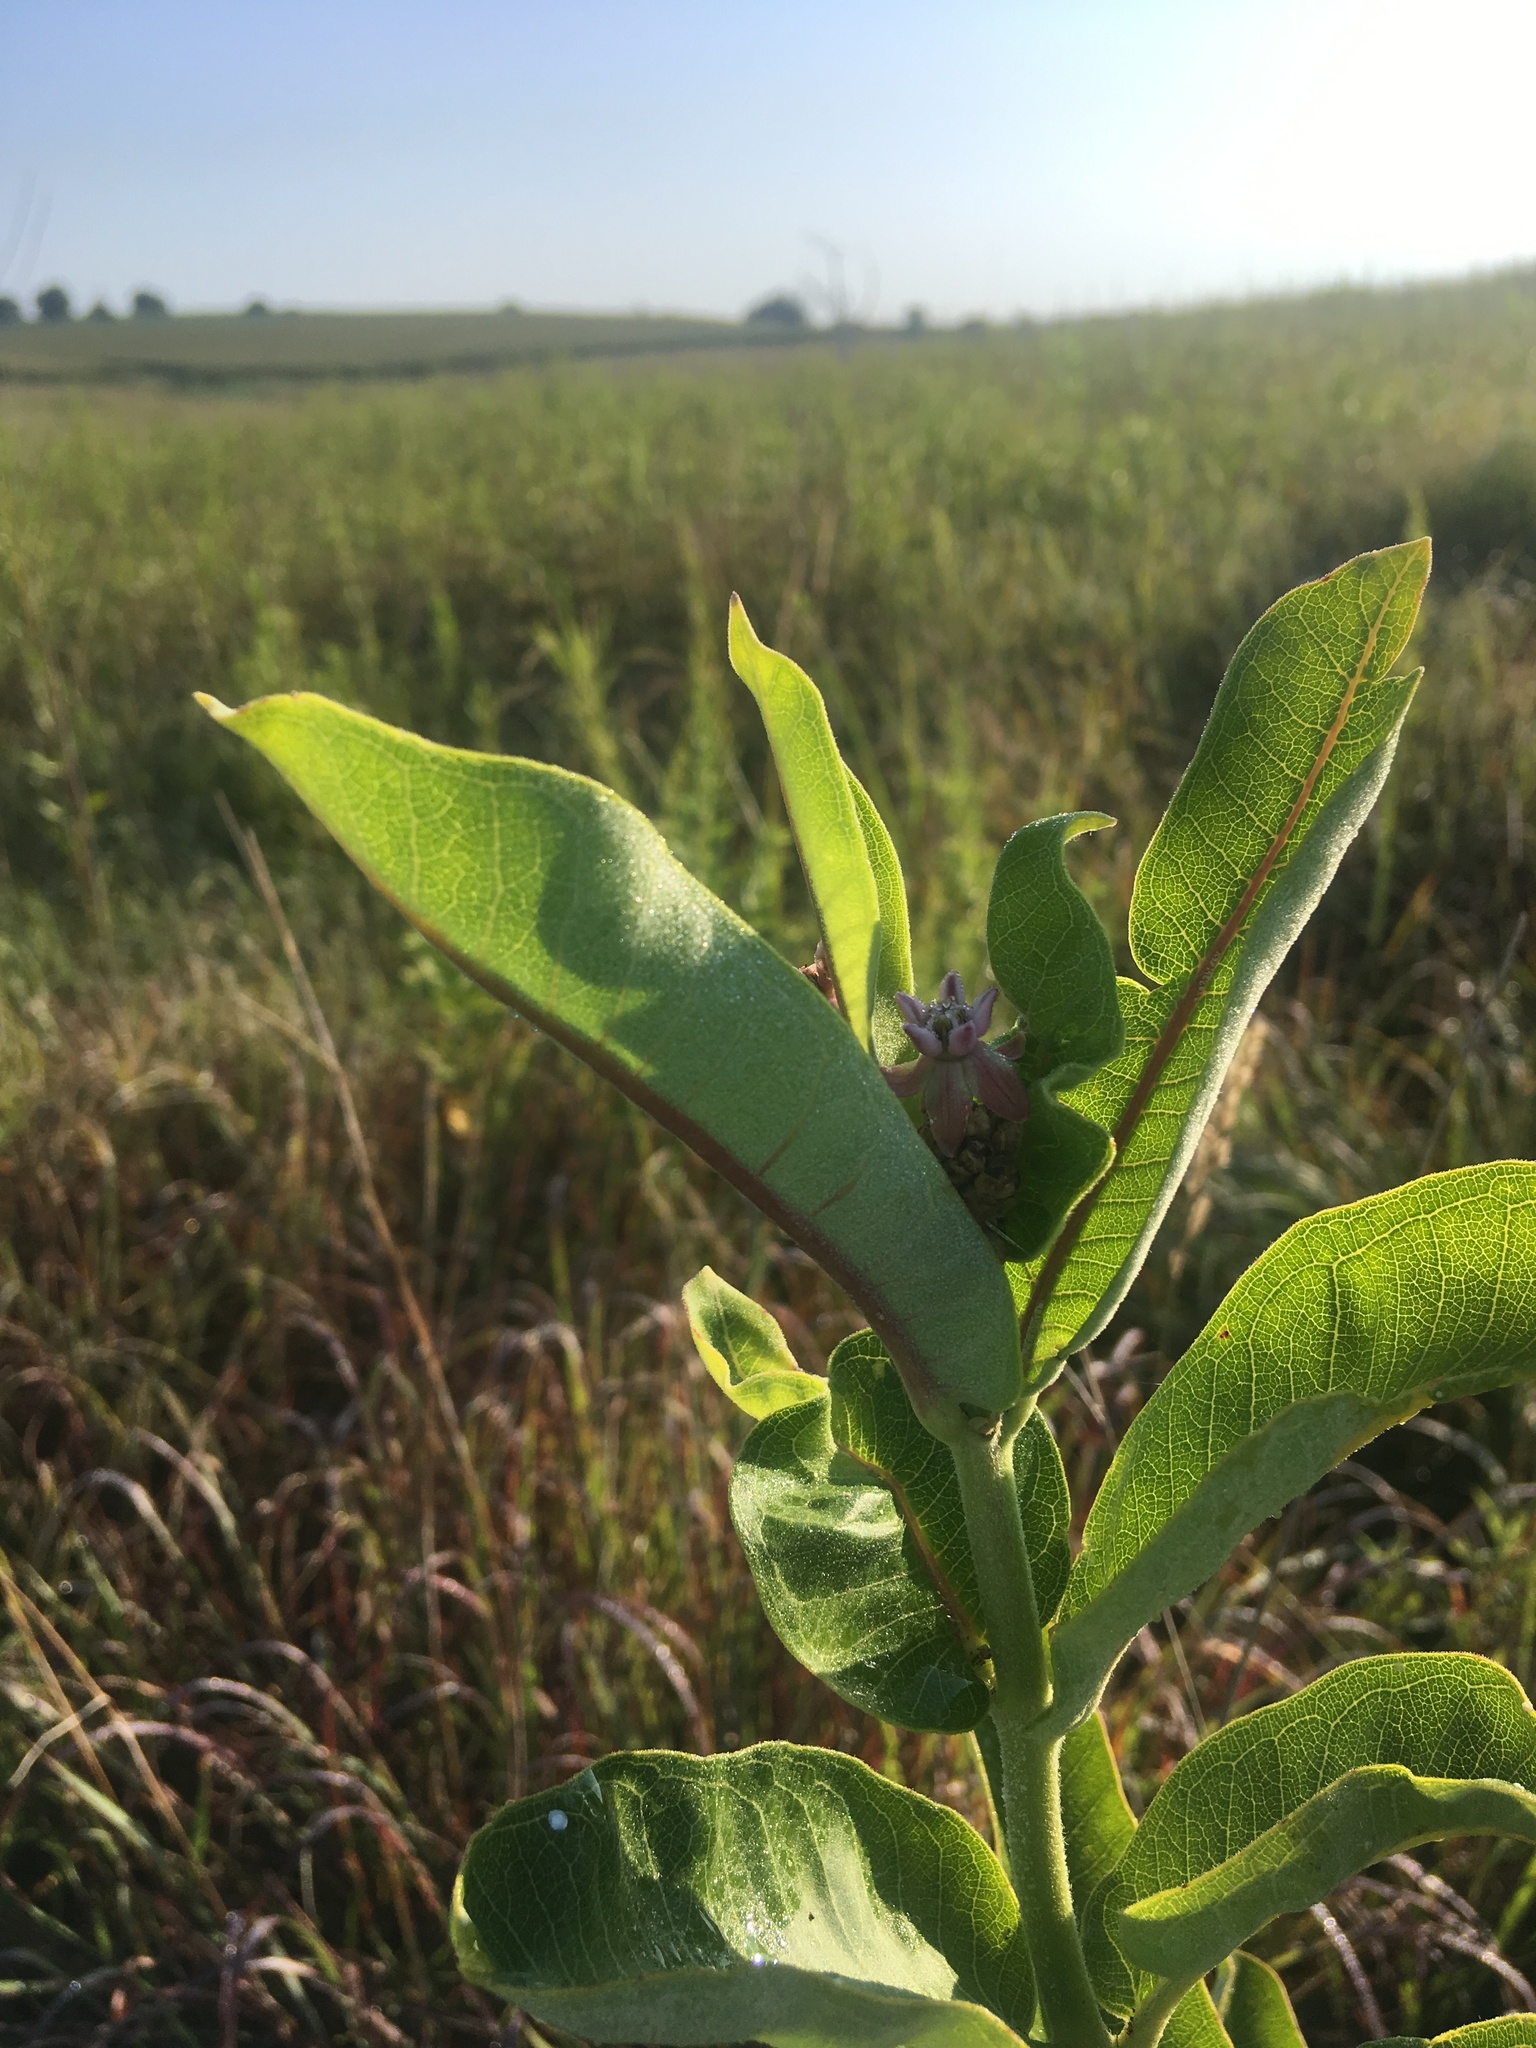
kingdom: Plantae
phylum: Tracheophyta
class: Magnoliopsida
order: Gentianales
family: Apocynaceae
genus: Asclepias
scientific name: Asclepias syriaca
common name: Common milkweed
